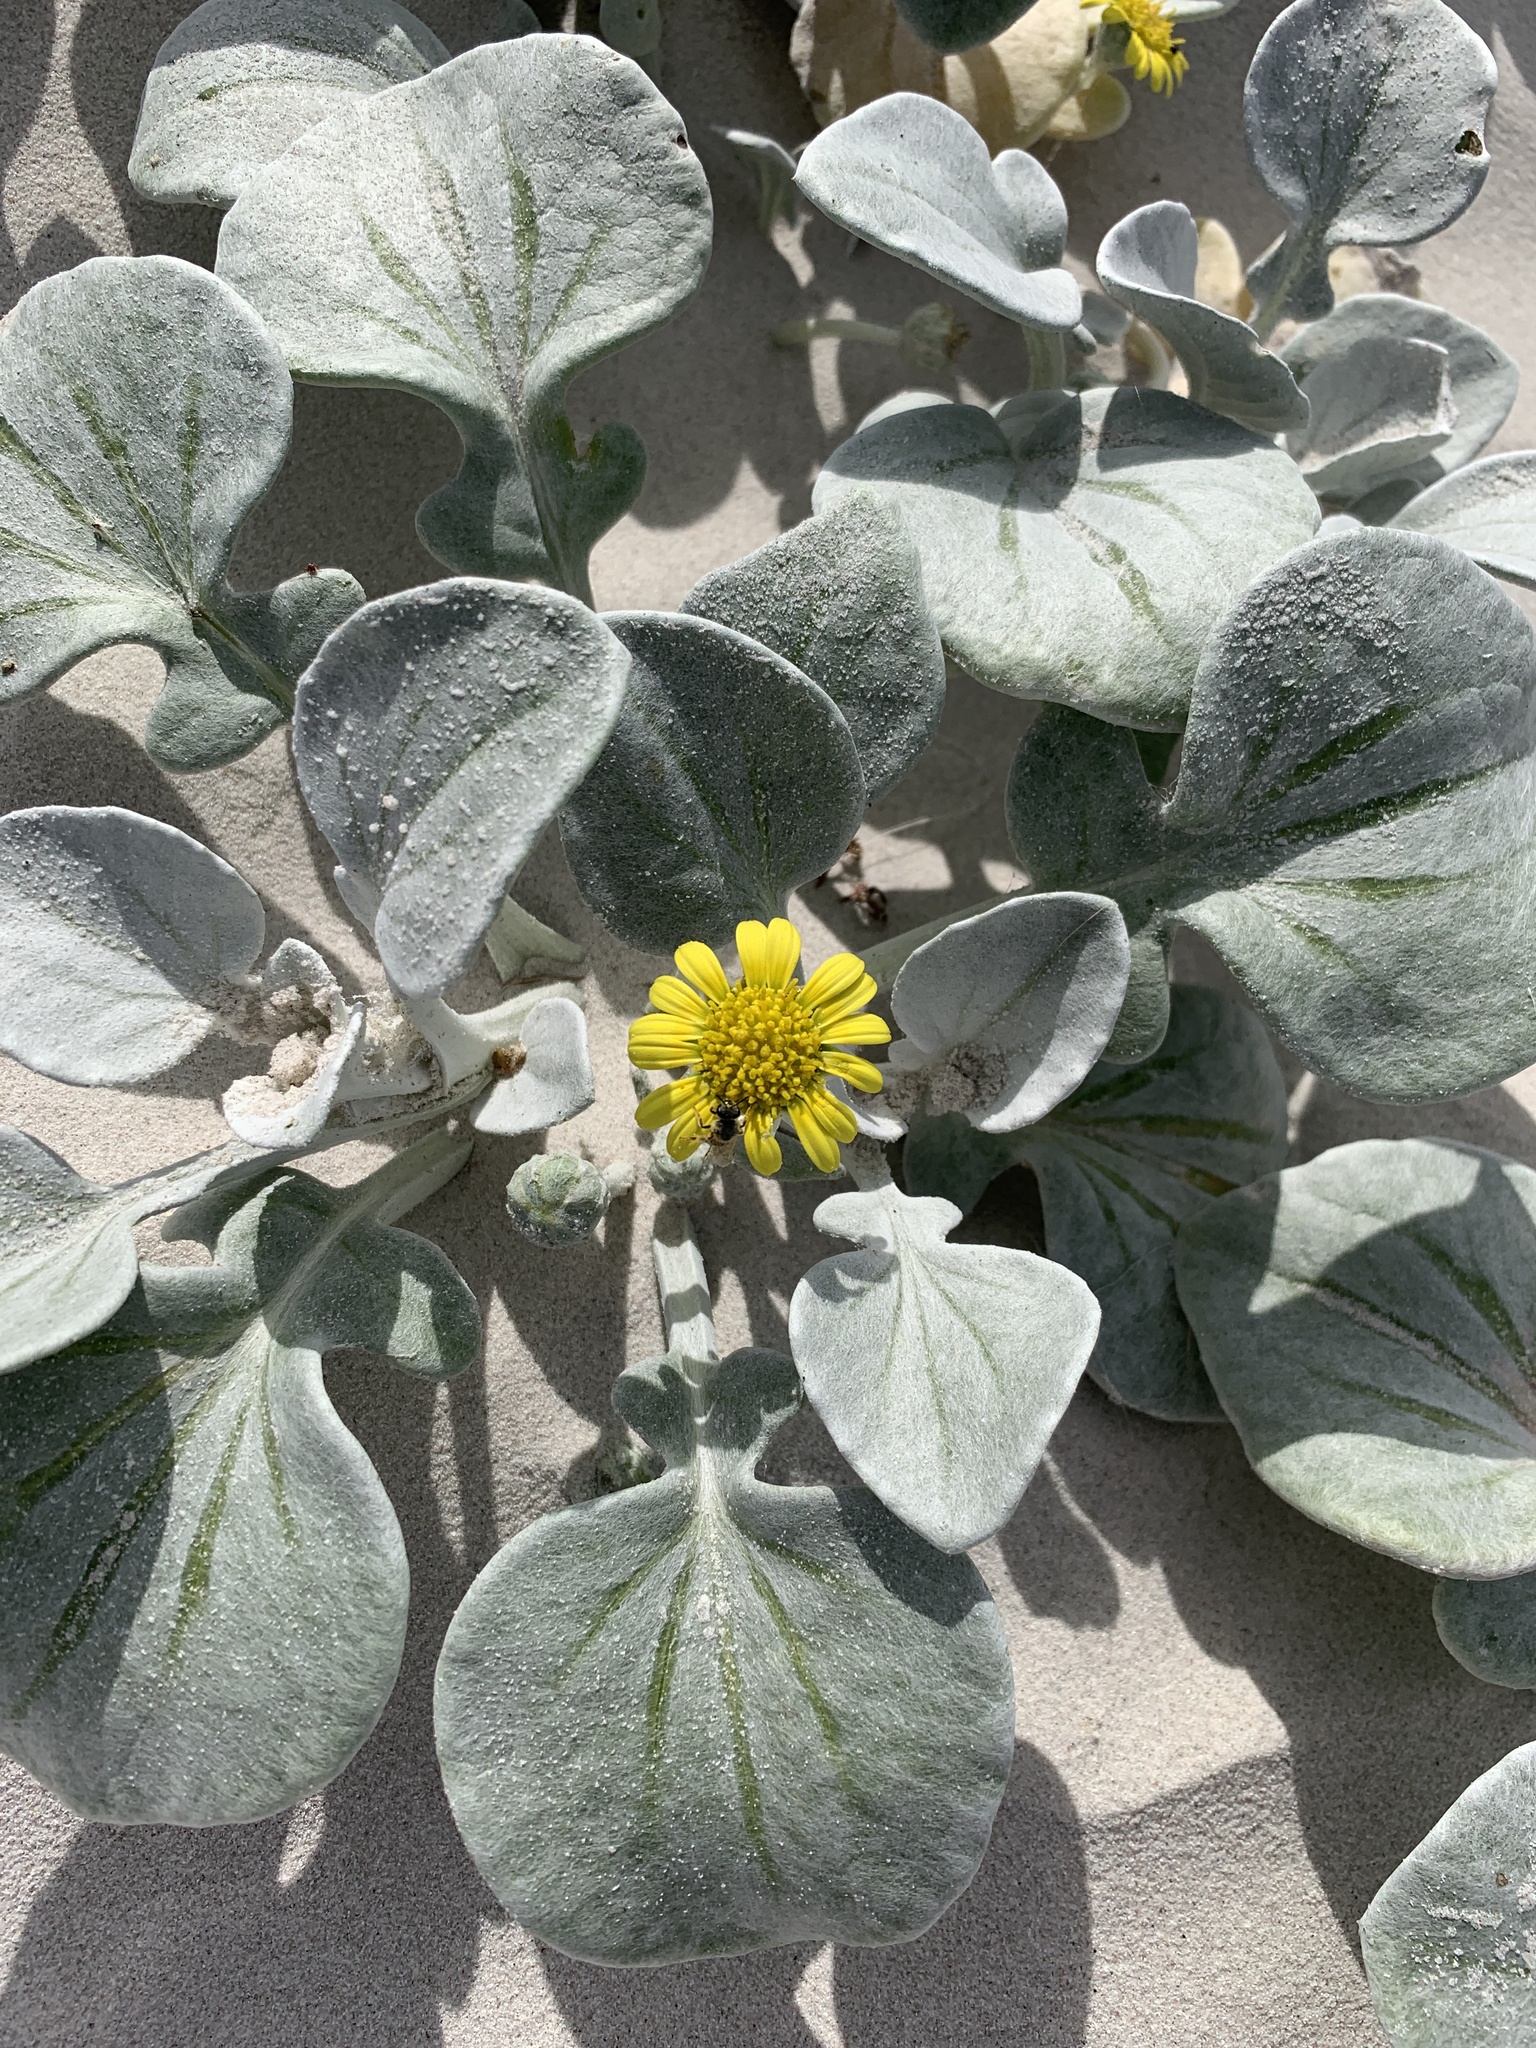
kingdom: Plantae
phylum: Tracheophyta
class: Magnoliopsida
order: Asterales
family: Asteraceae
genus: Arctotheca
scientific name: Arctotheca populifolia
